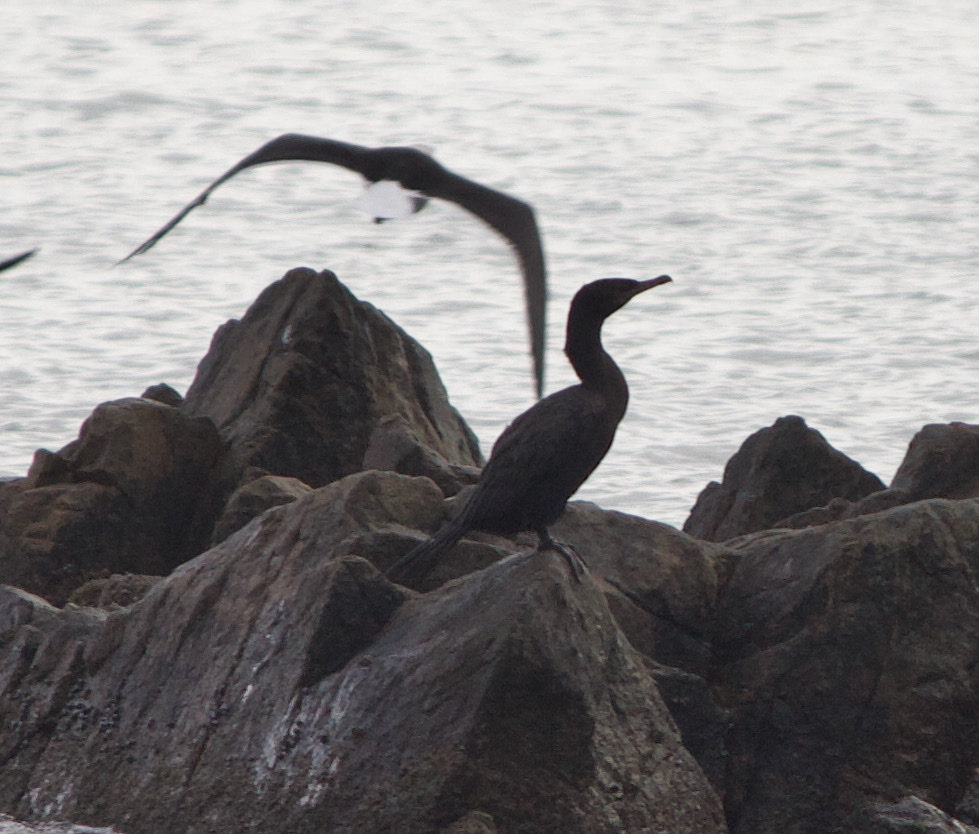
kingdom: Animalia
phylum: Chordata
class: Aves
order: Suliformes
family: Phalacrocoracidae
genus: Phalacrocorax
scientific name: Phalacrocorax brasilianus
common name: Neotropic cormorant
